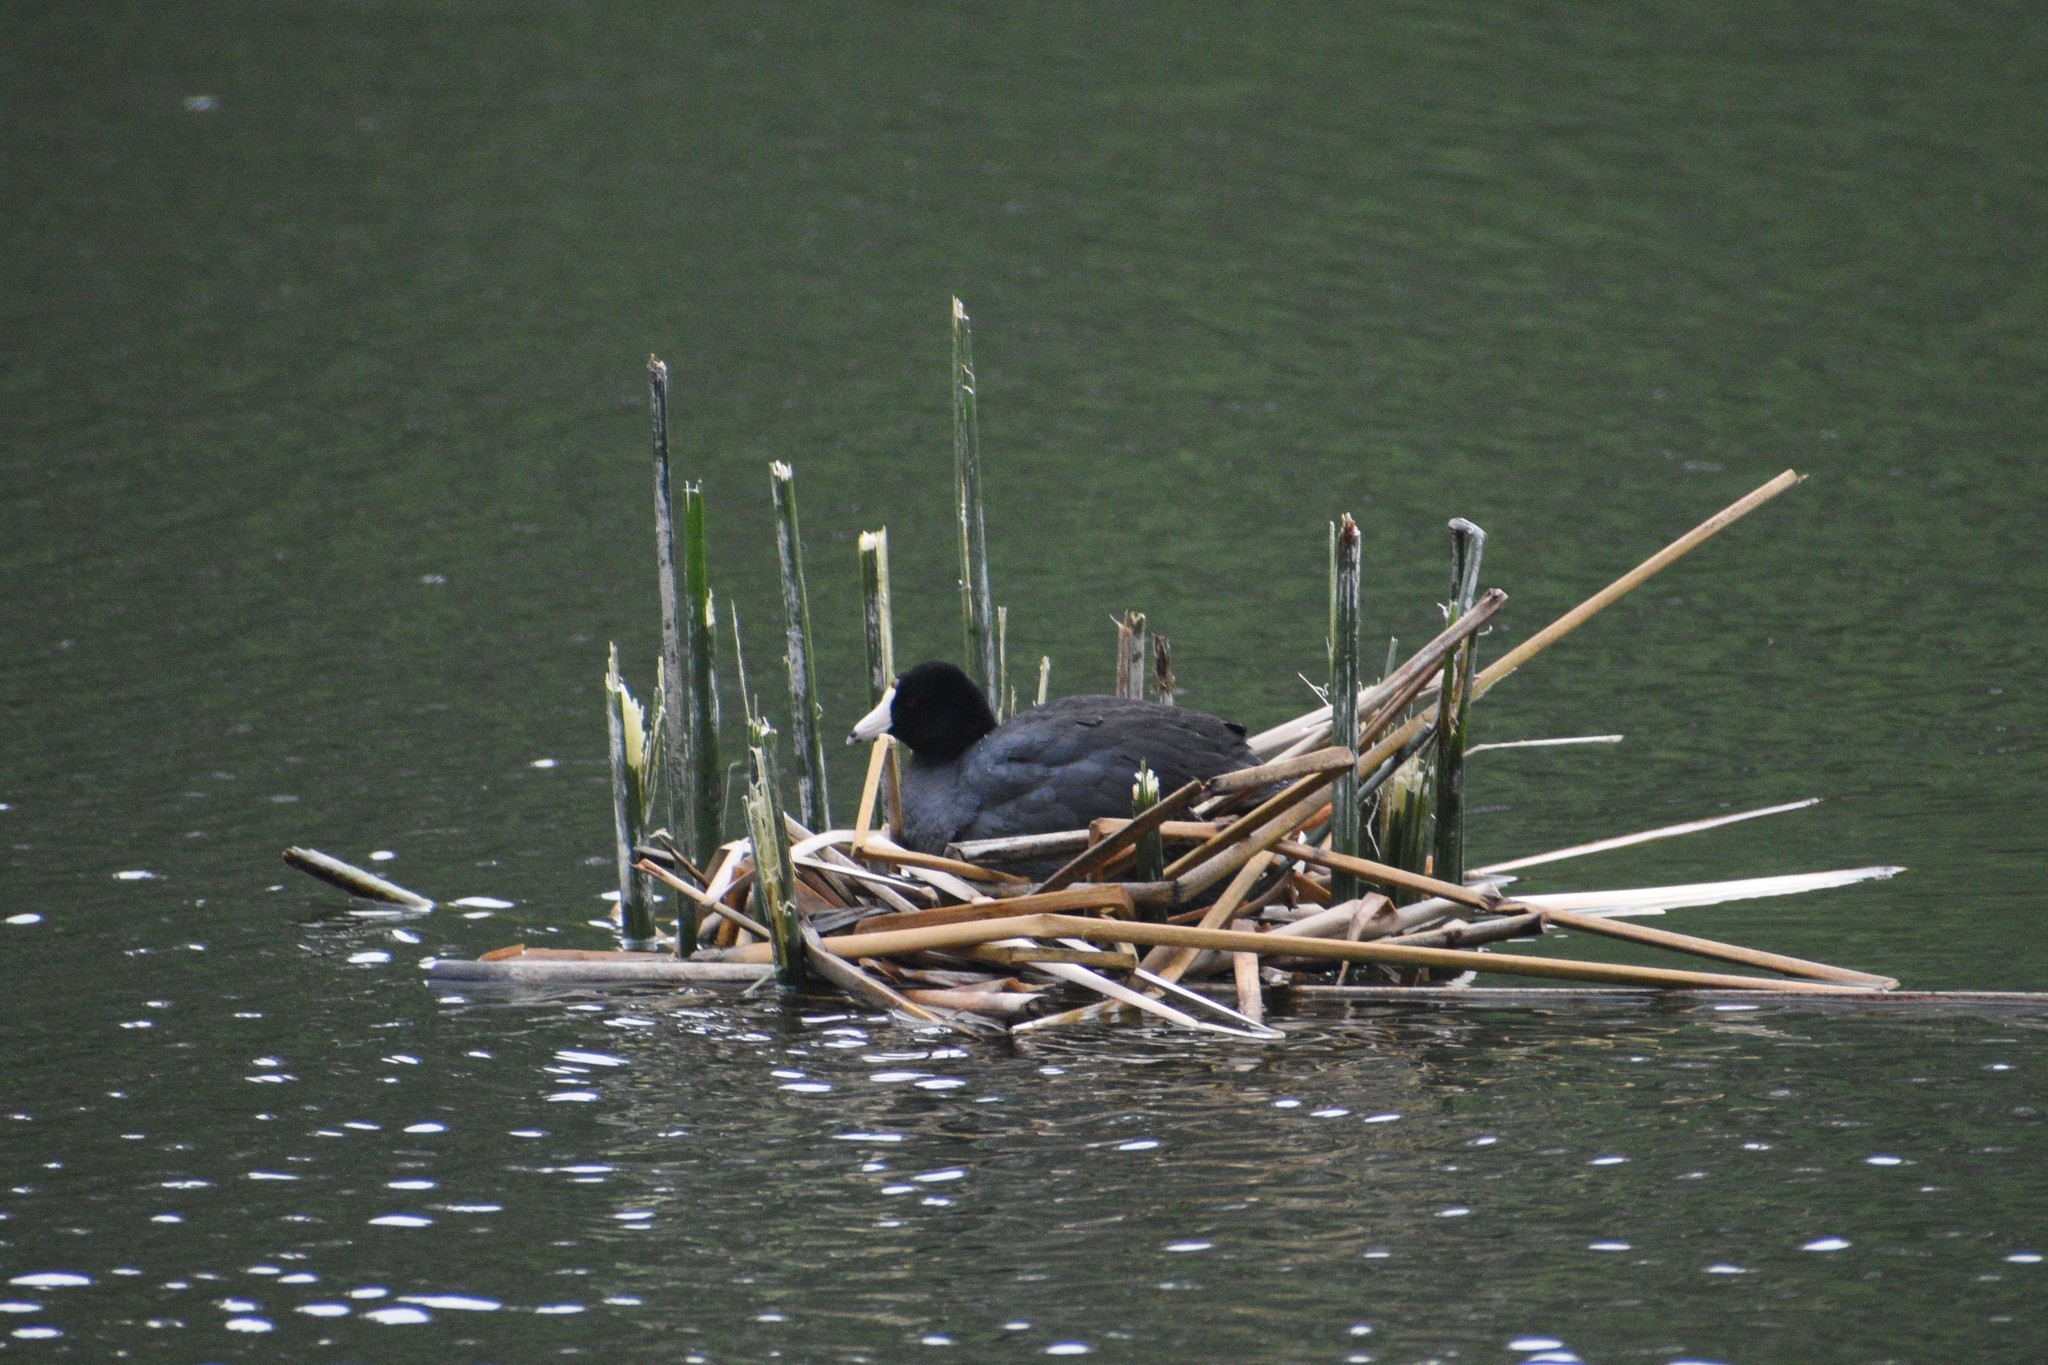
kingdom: Animalia
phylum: Chordata
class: Aves
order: Gruiformes
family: Rallidae
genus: Fulica
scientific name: Fulica americana
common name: American coot
